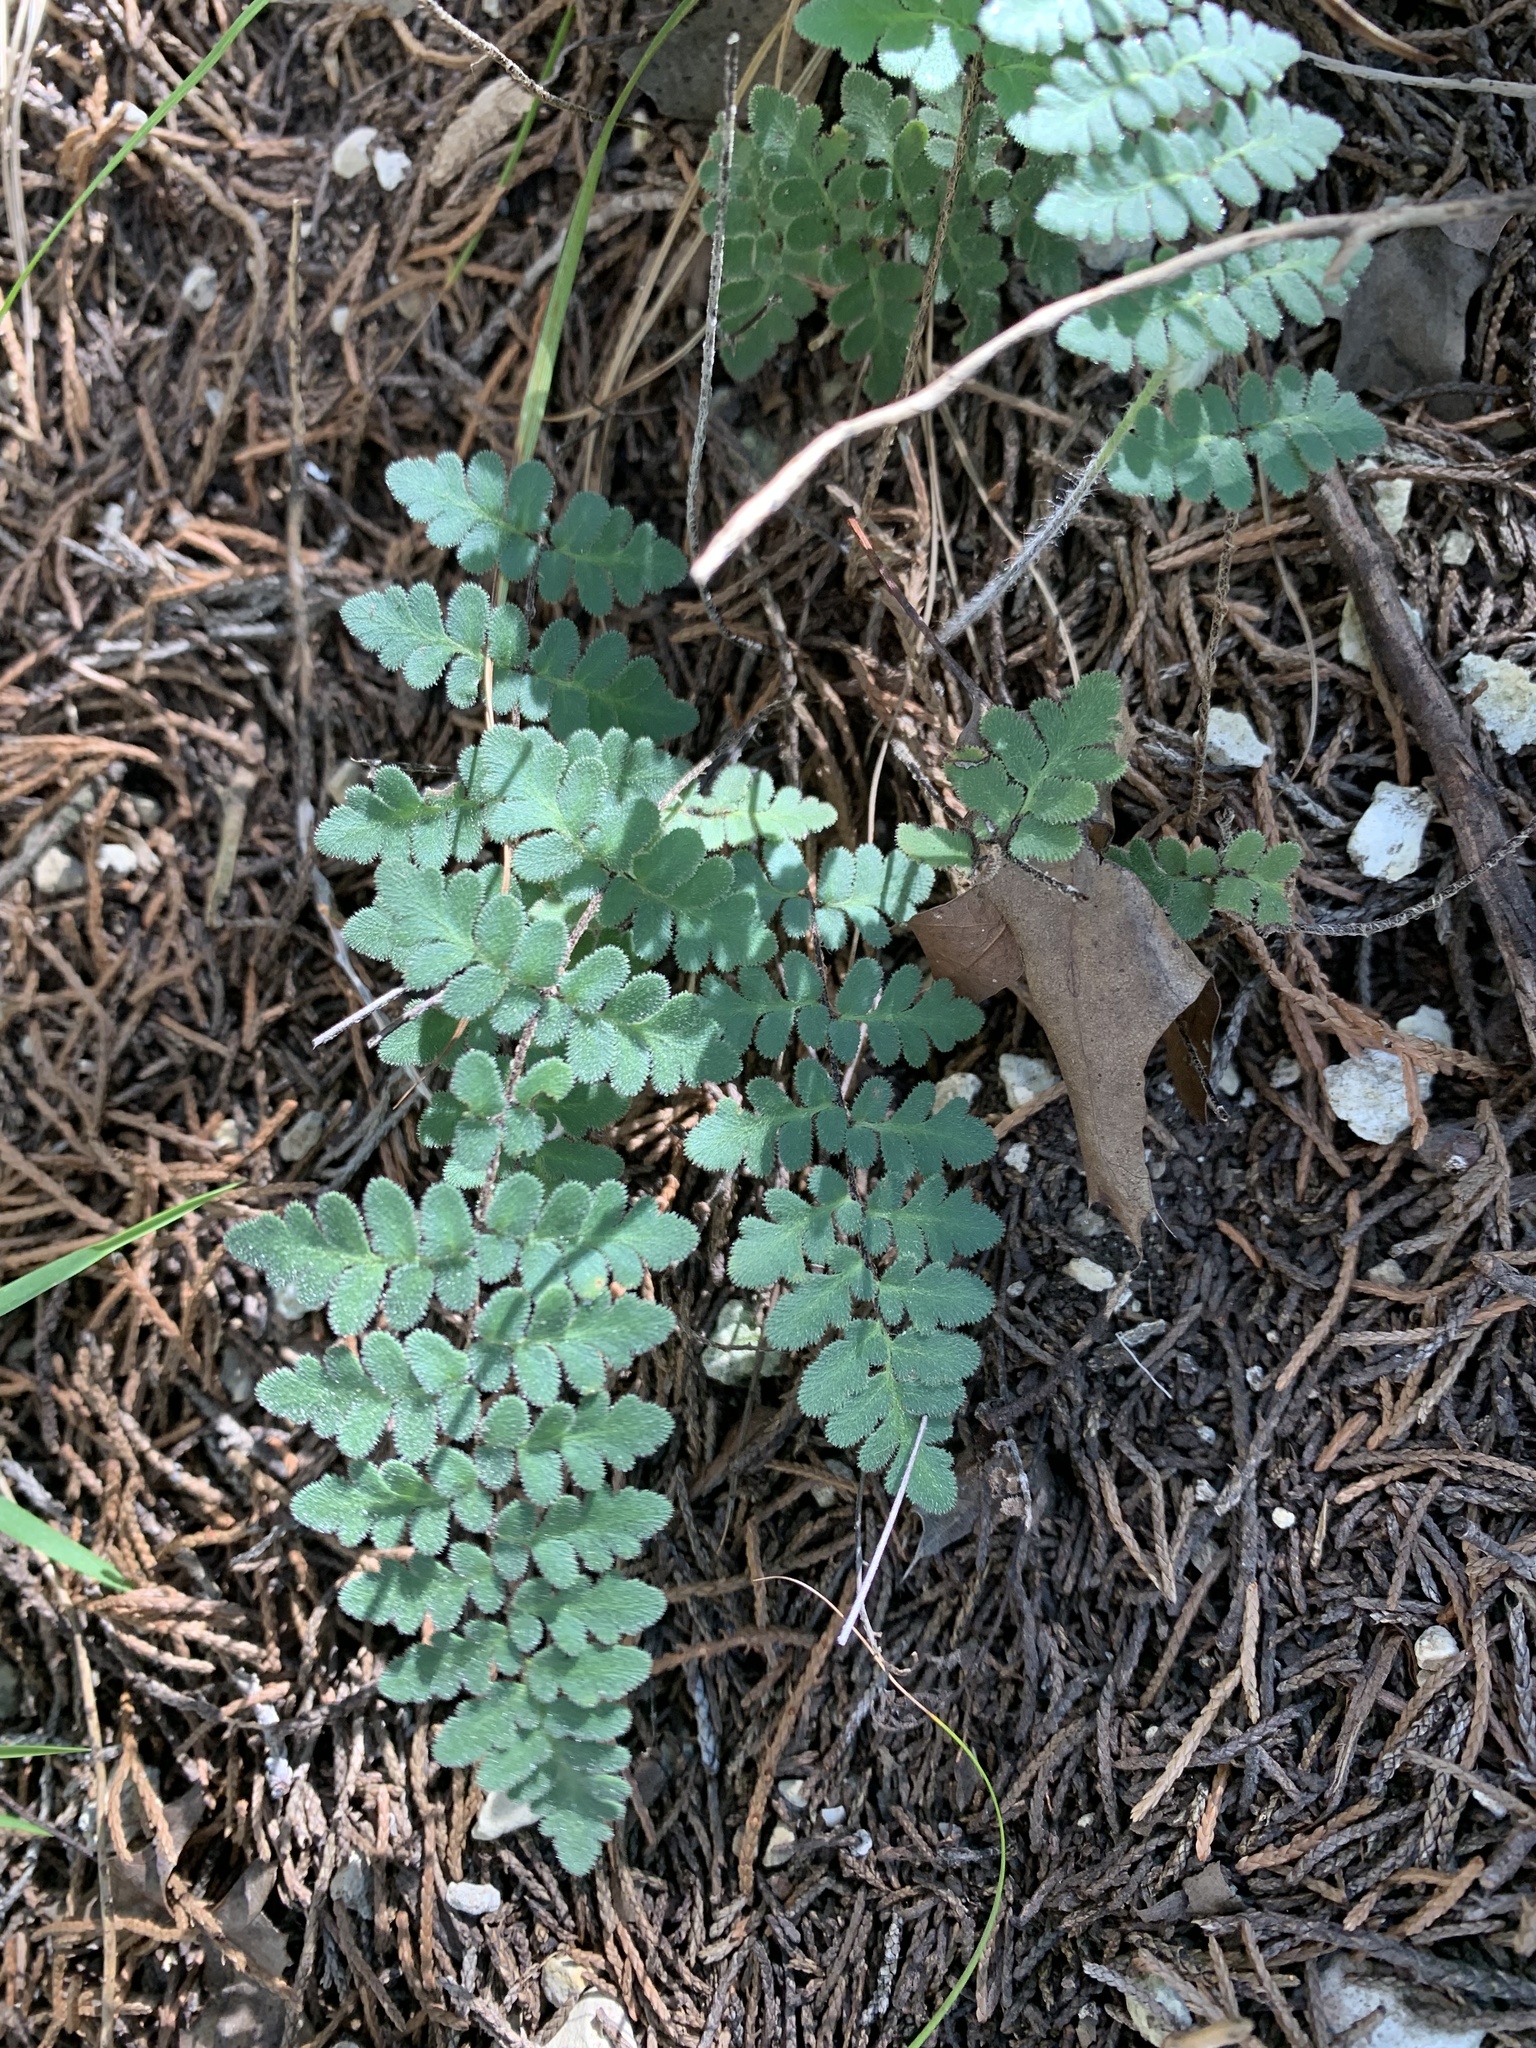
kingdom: Plantae
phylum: Tracheophyta
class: Polypodiopsida
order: Polypodiales
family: Pteridaceae
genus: Myriopteris
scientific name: Myriopteris scabra
